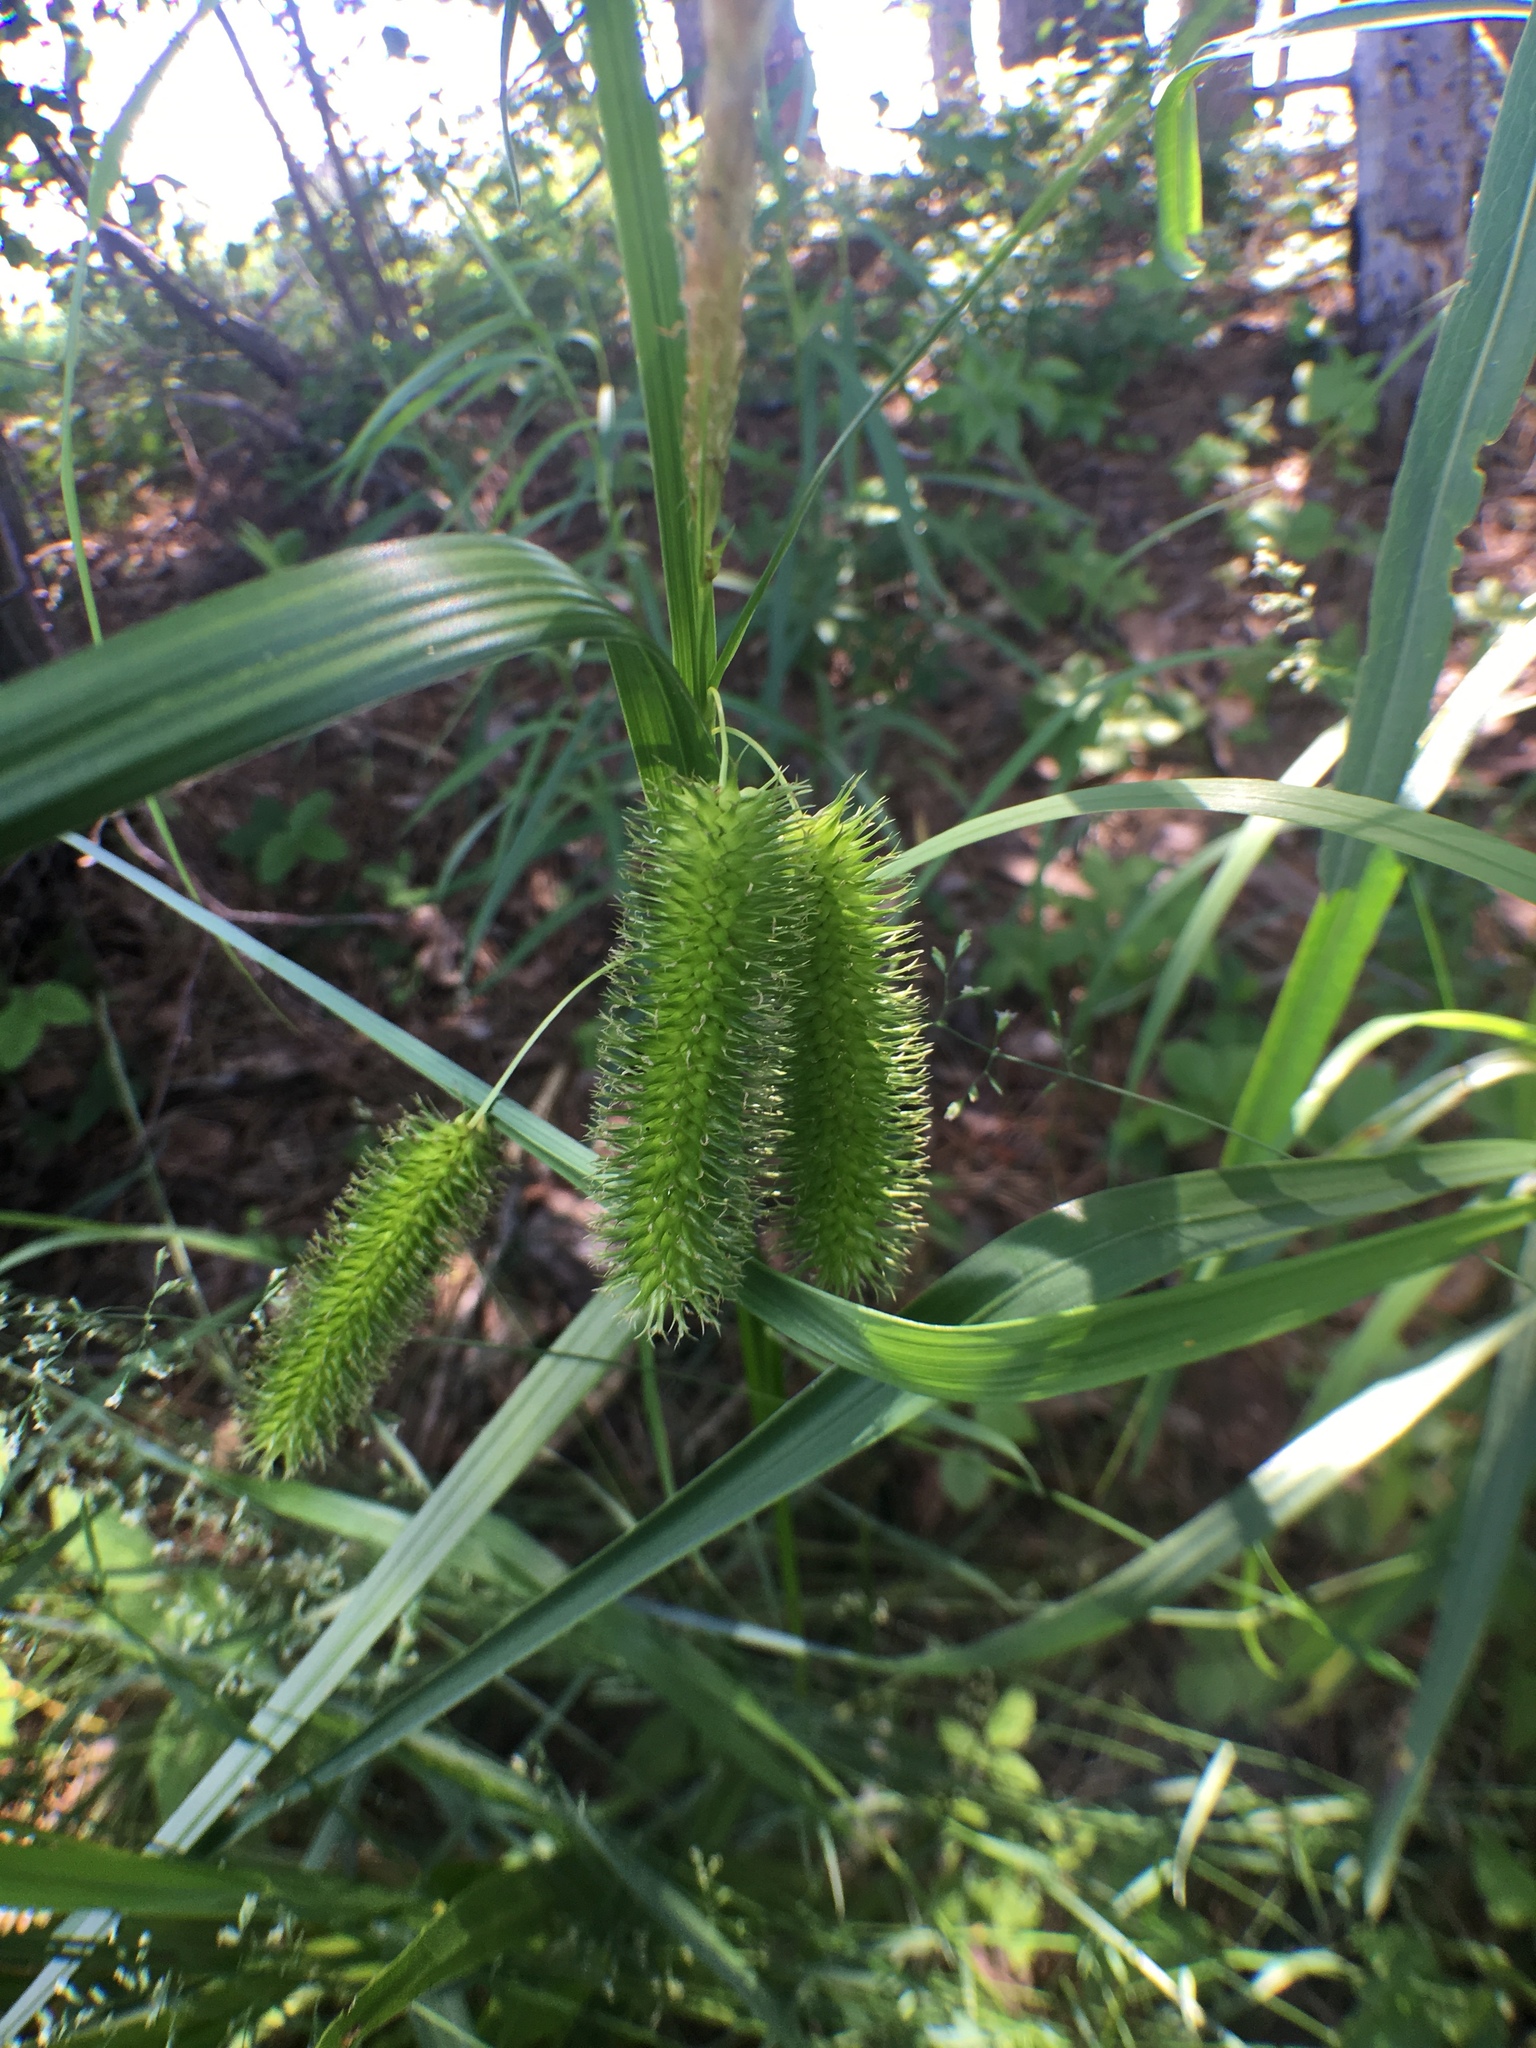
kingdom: Plantae
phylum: Tracheophyta
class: Liliopsida
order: Poales
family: Cyperaceae
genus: Carex
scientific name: Carex comosa
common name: Bristly sedge
